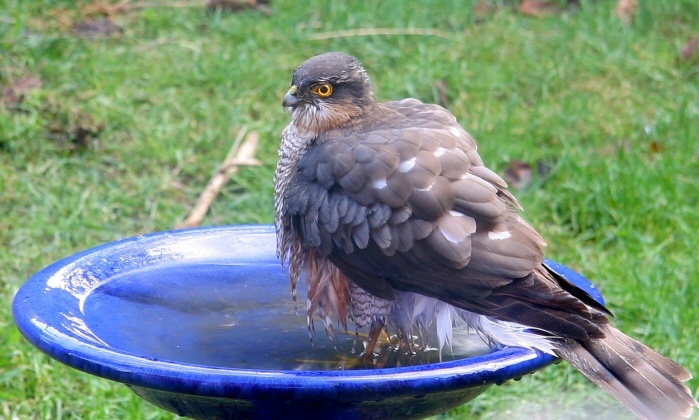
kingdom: Animalia
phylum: Chordata
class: Aves
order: Accipitriformes
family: Accipitridae
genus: Accipiter
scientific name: Accipiter nisus
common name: Eurasian sparrowhawk
